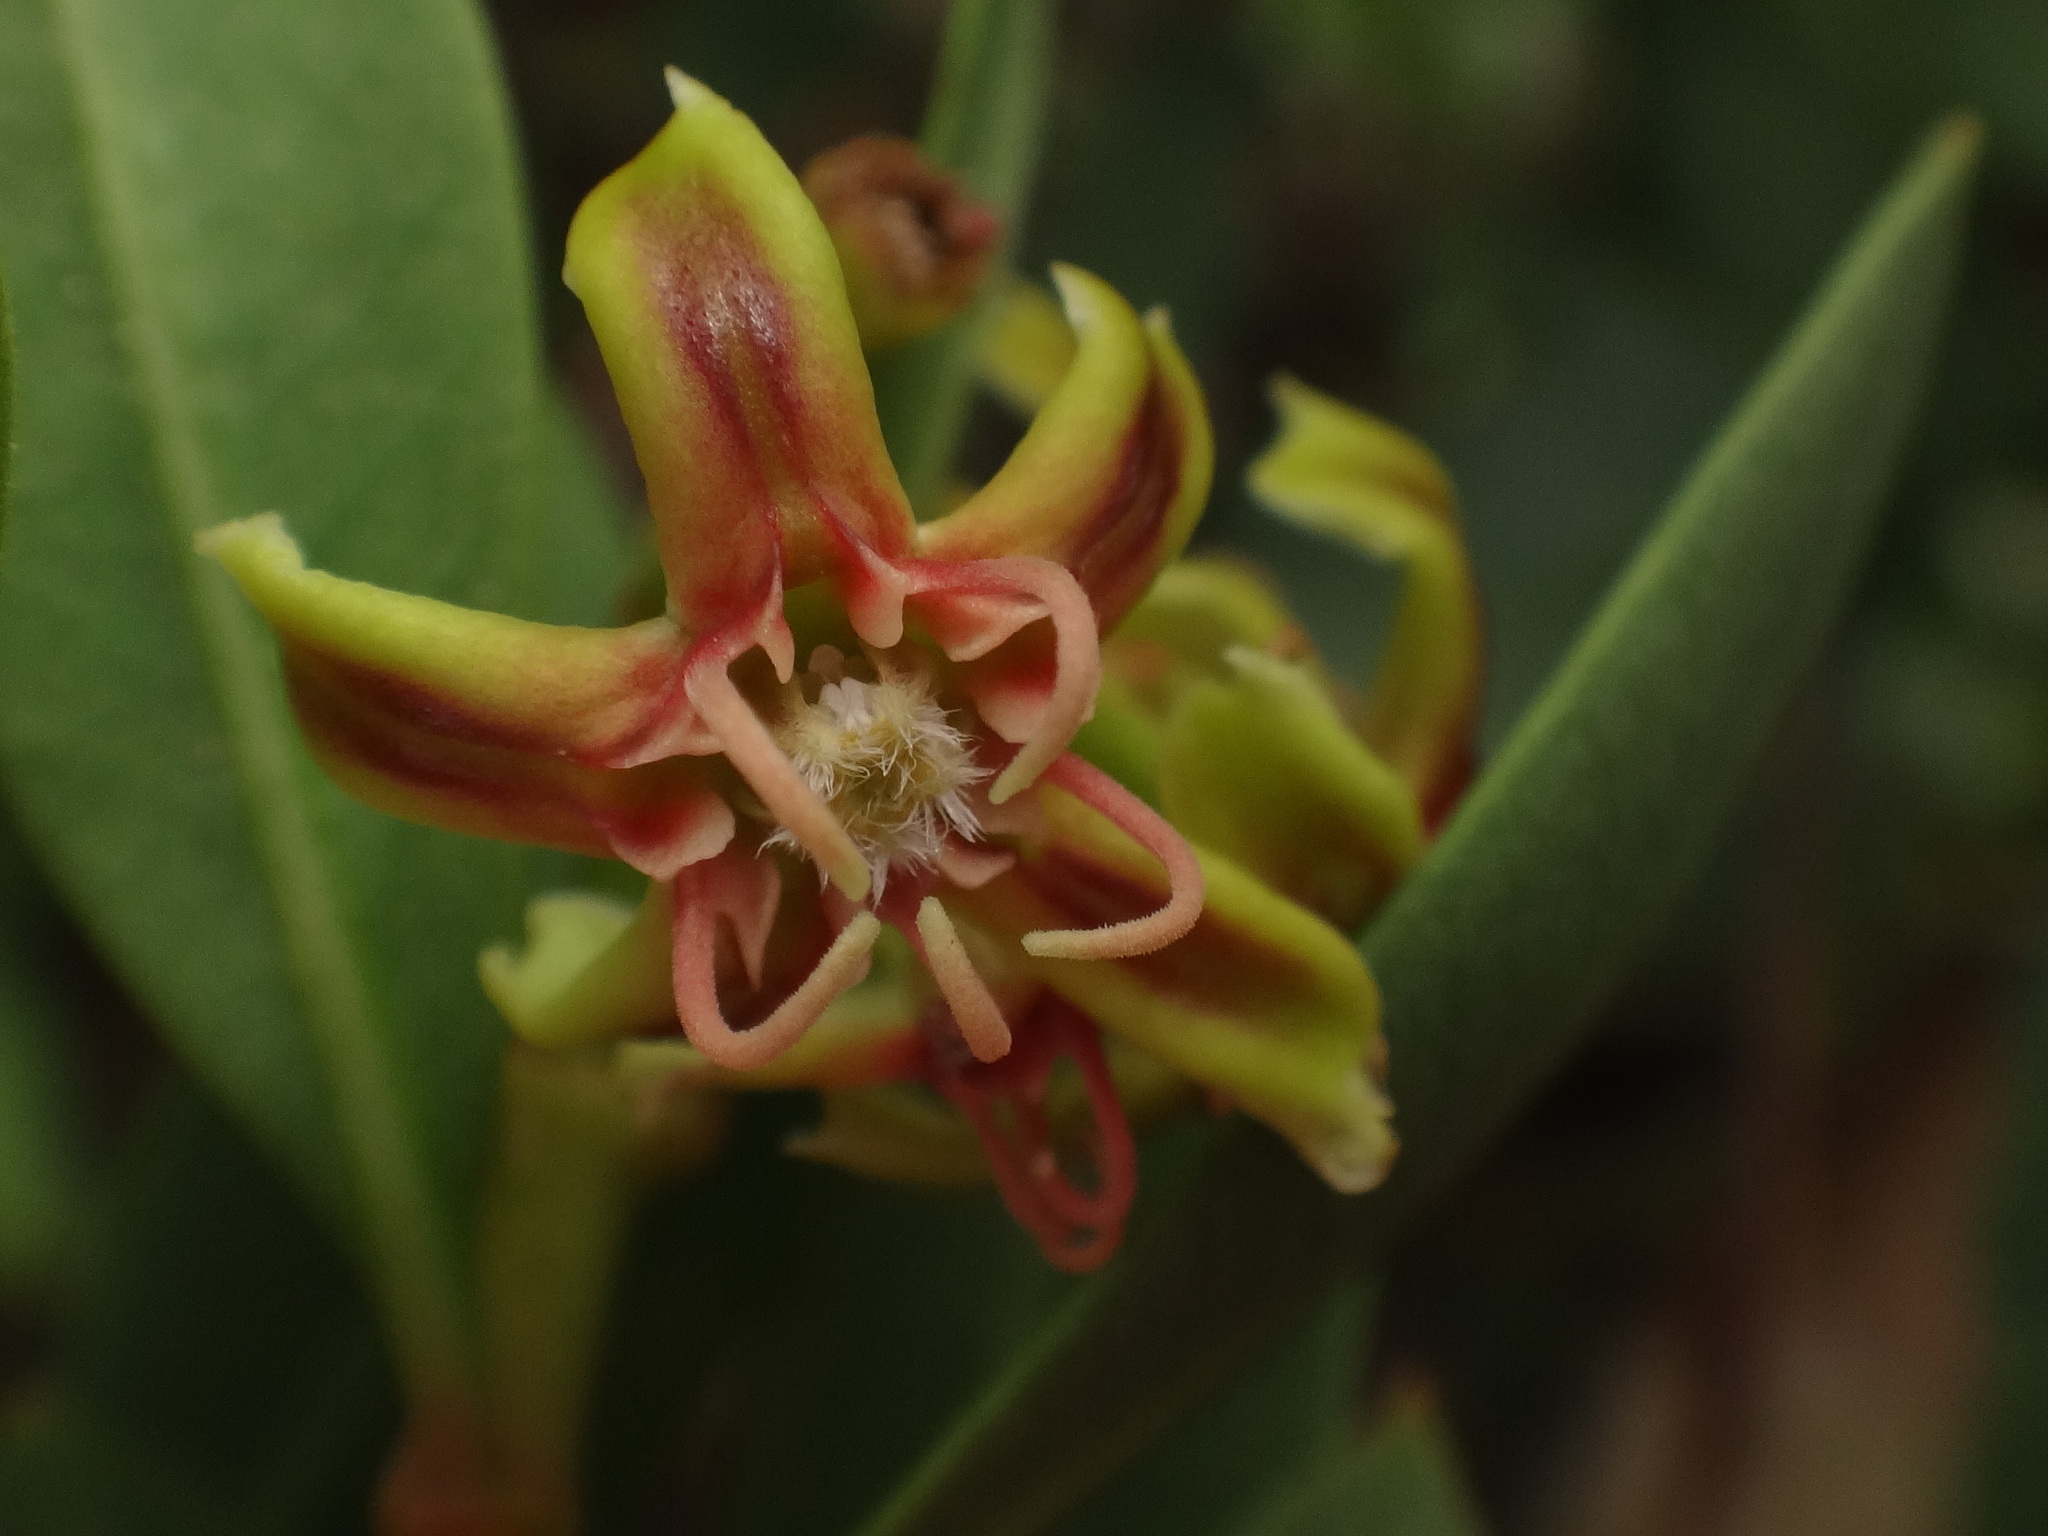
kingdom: Plantae
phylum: Tracheophyta
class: Magnoliopsida
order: Gentianales
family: Apocynaceae
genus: Periploca
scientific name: Periploca laevigata
